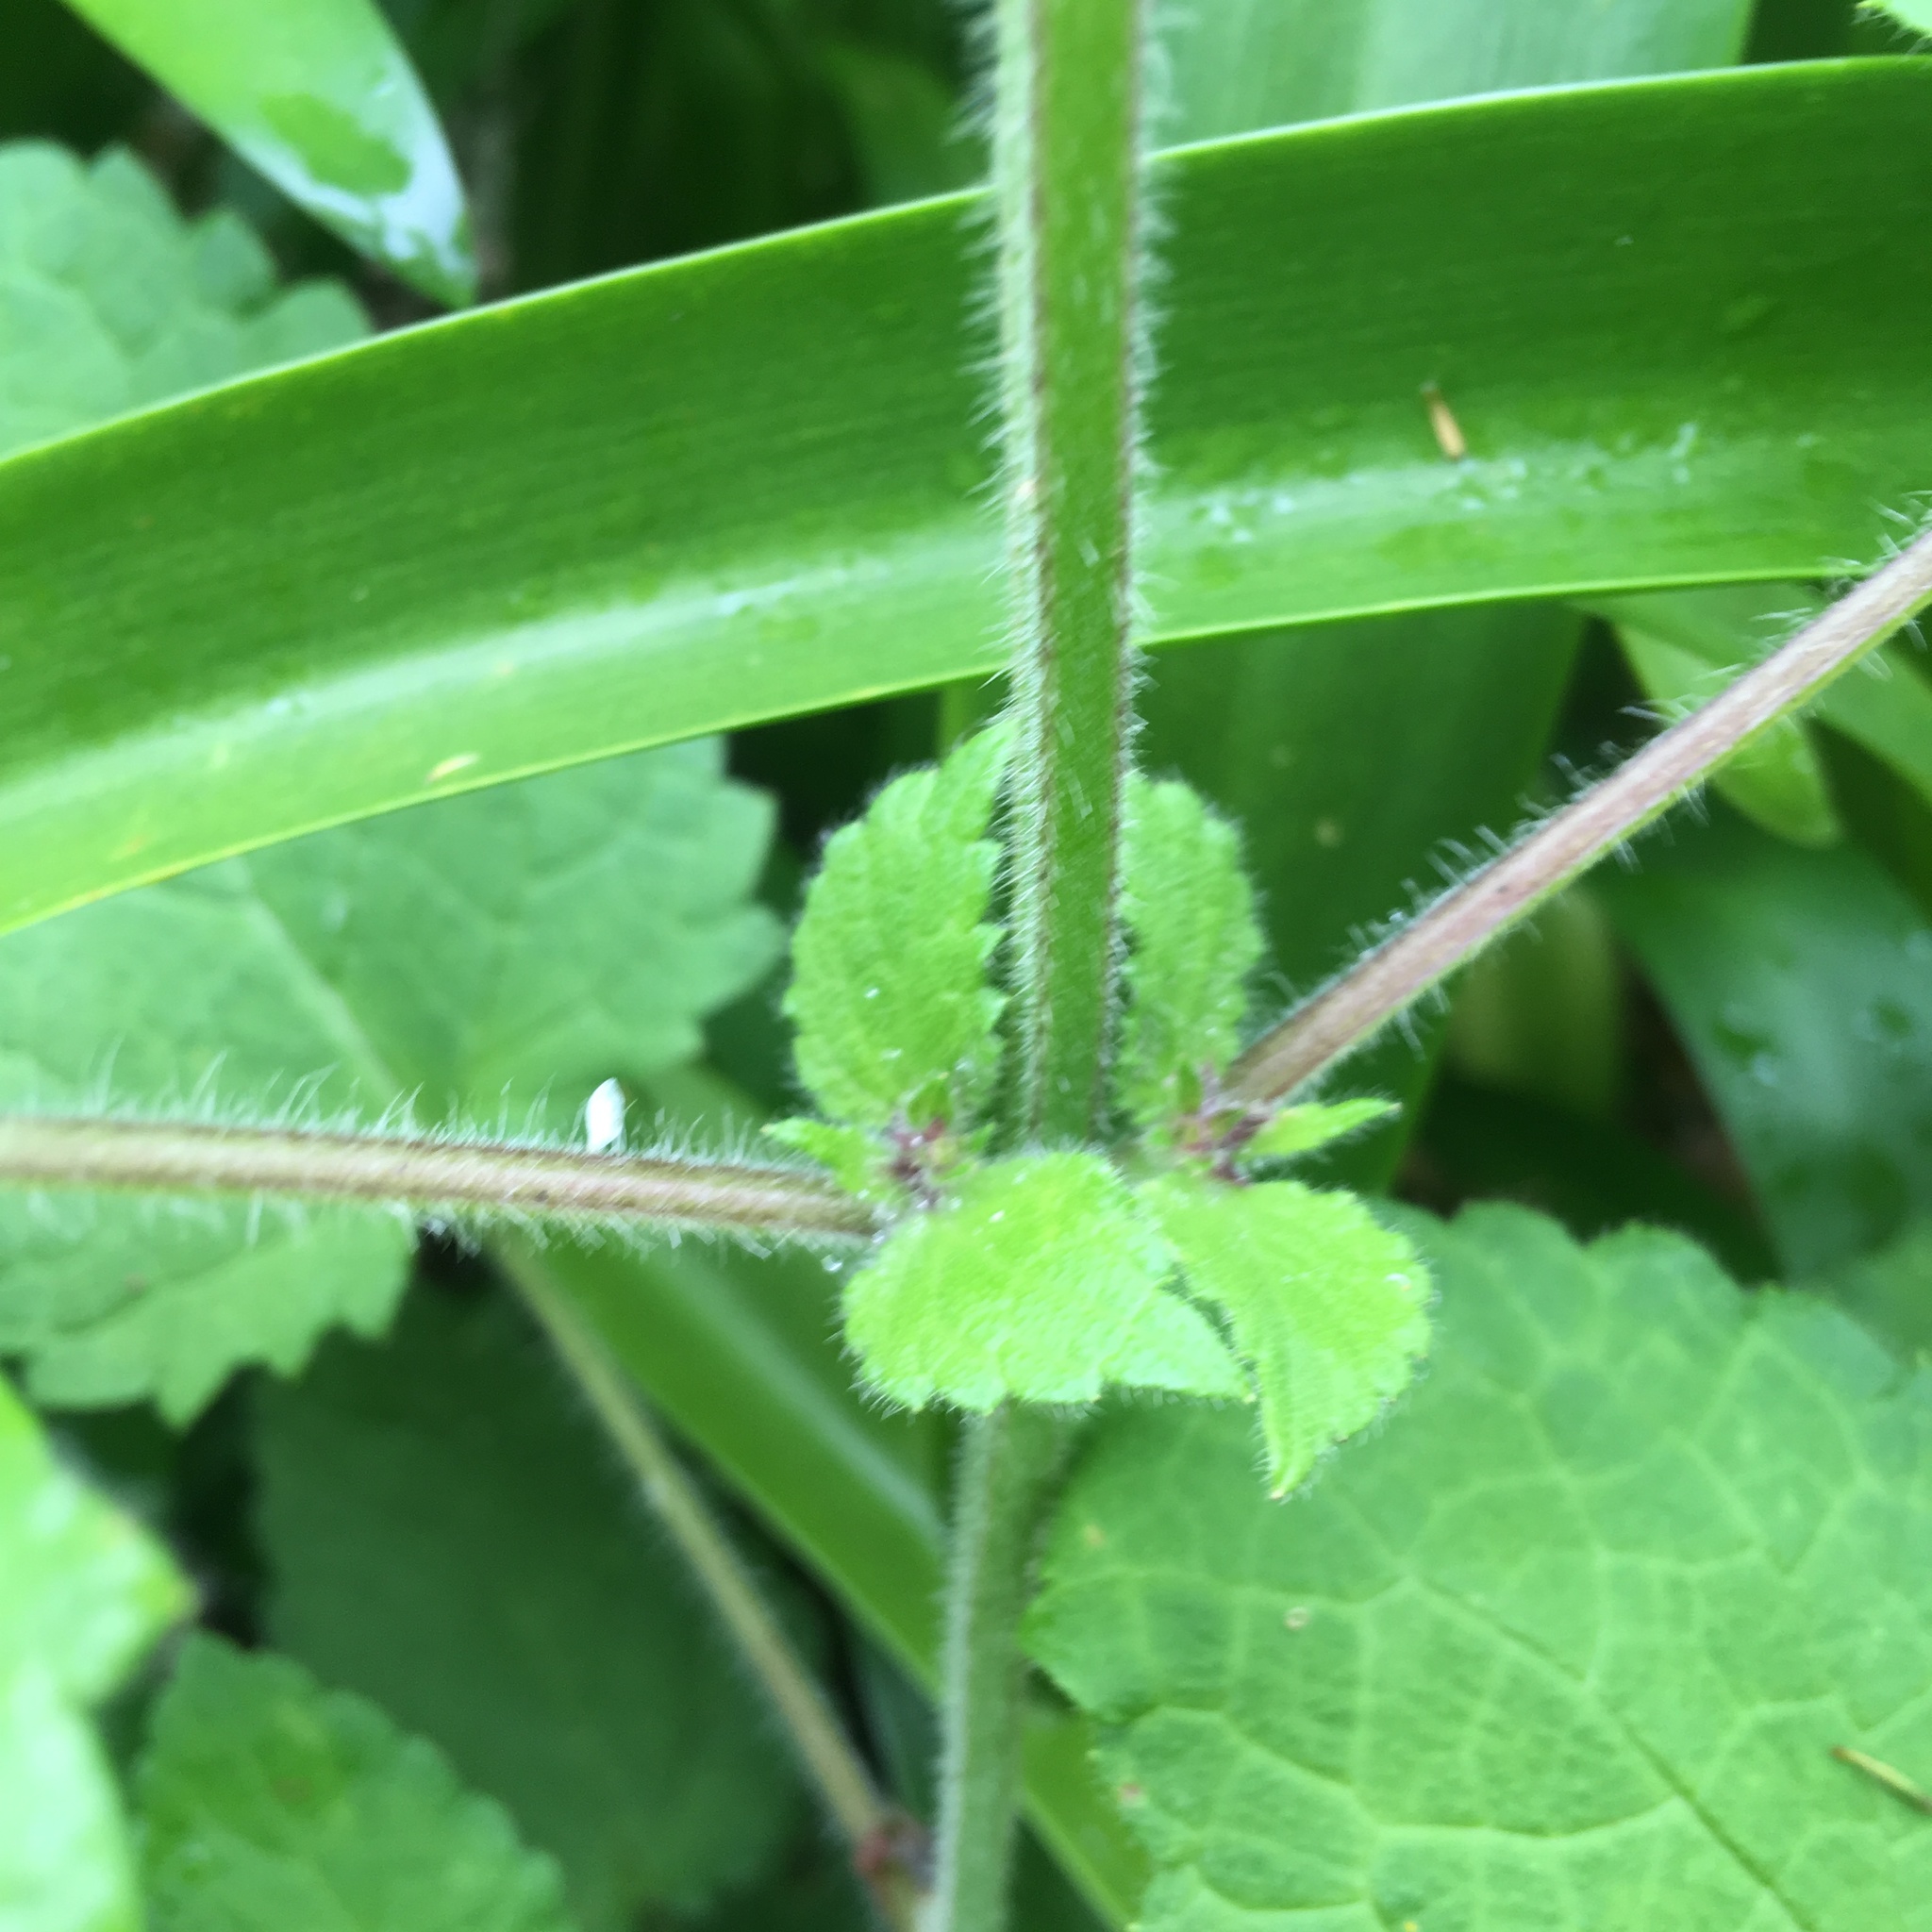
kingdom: Plantae
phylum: Tracheophyta
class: Magnoliopsida
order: Lamiales
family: Lamiaceae
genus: Stachys
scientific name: Stachys sylvatica
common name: Hedge woundwort
